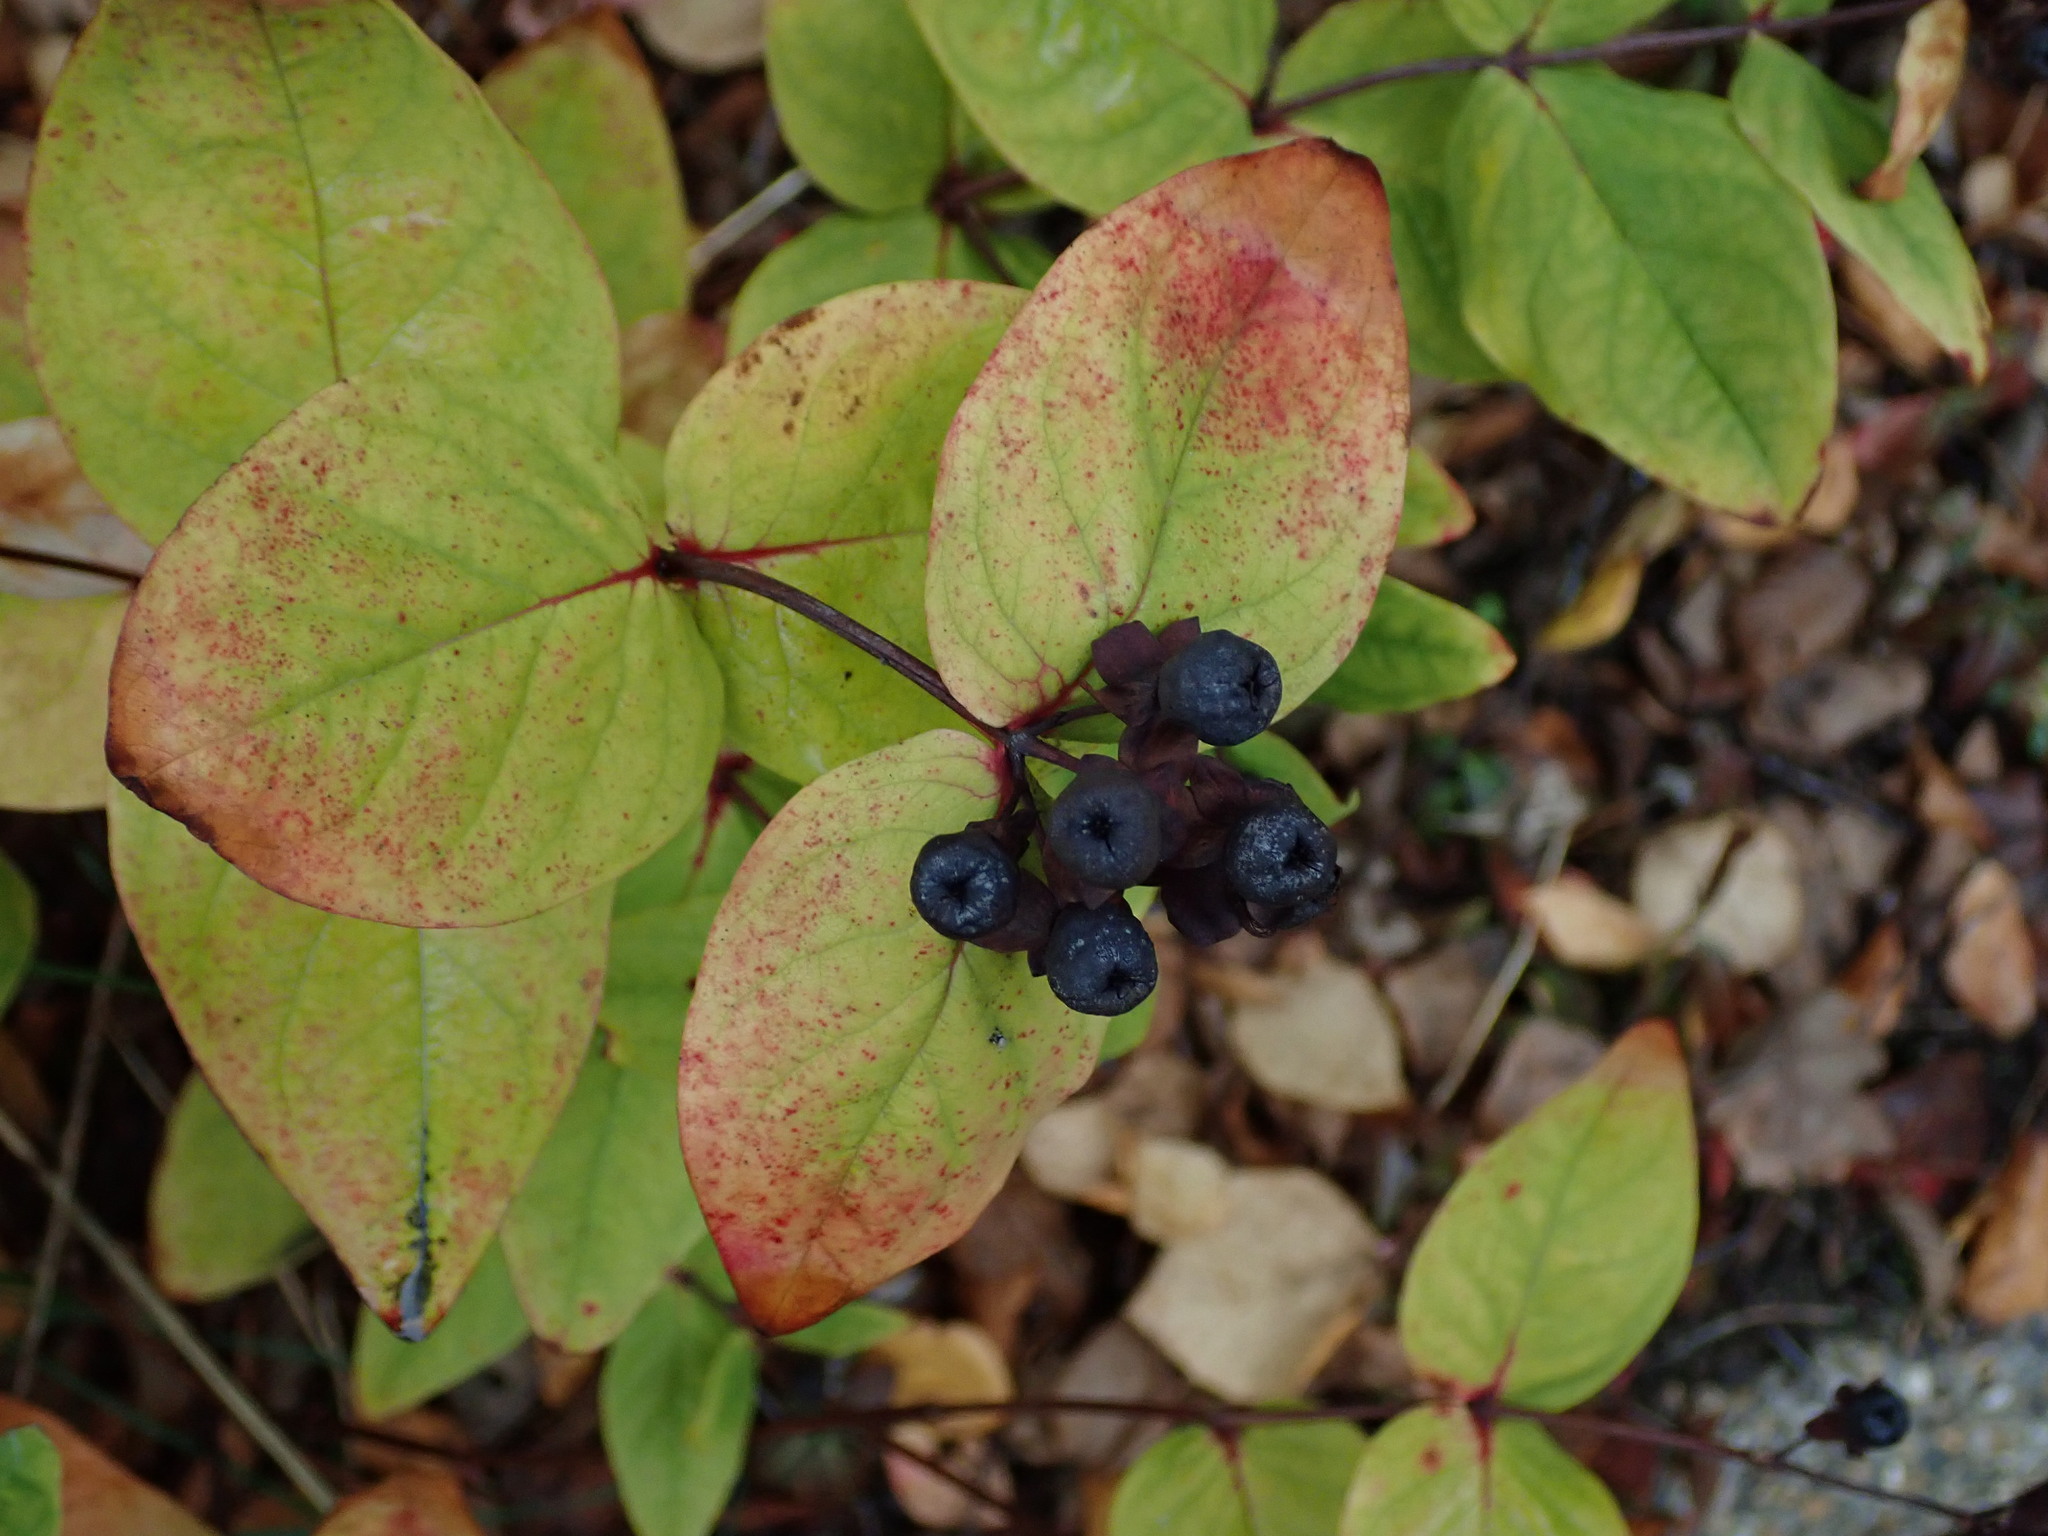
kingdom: Plantae
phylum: Tracheophyta
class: Magnoliopsida
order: Malpighiales
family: Hypericaceae
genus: Hypericum
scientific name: Hypericum androsaemum
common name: Sweet-amber
